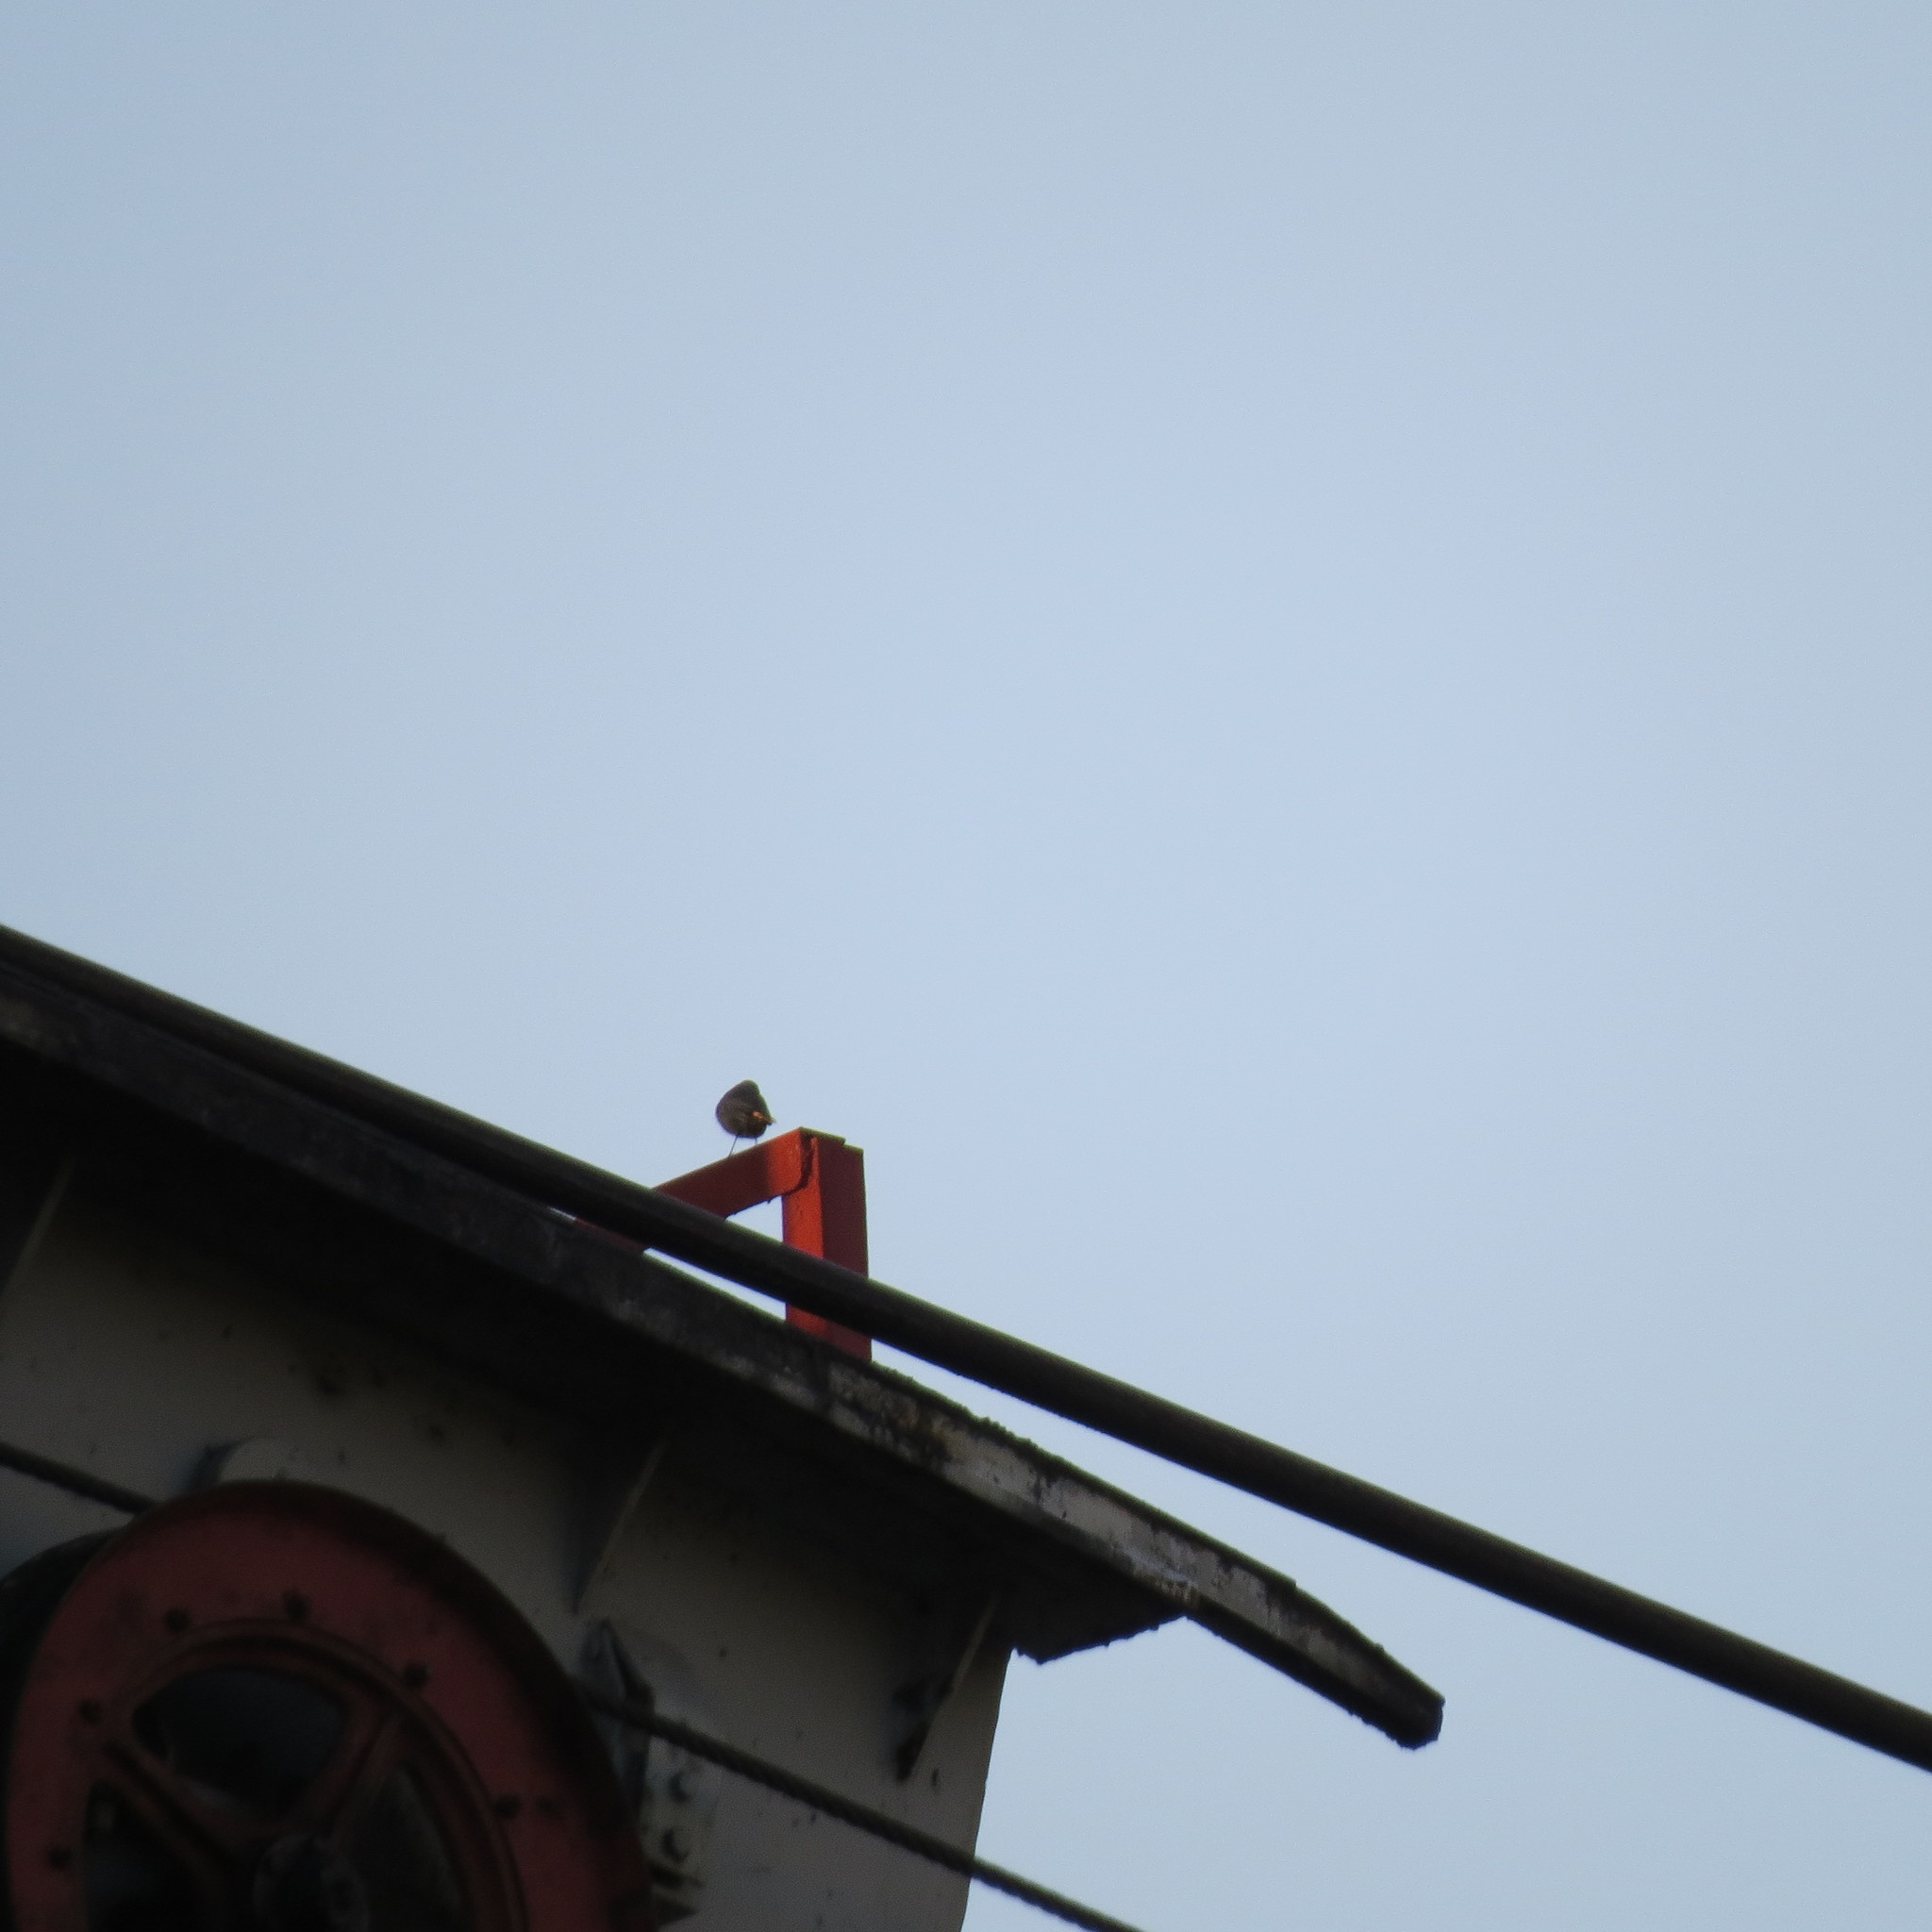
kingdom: Animalia
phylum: Chordata
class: Aves
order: Passeriformes
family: Muscicapidae
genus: Phoenicurus
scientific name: Phoenicurus ochruros
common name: Black redstart
